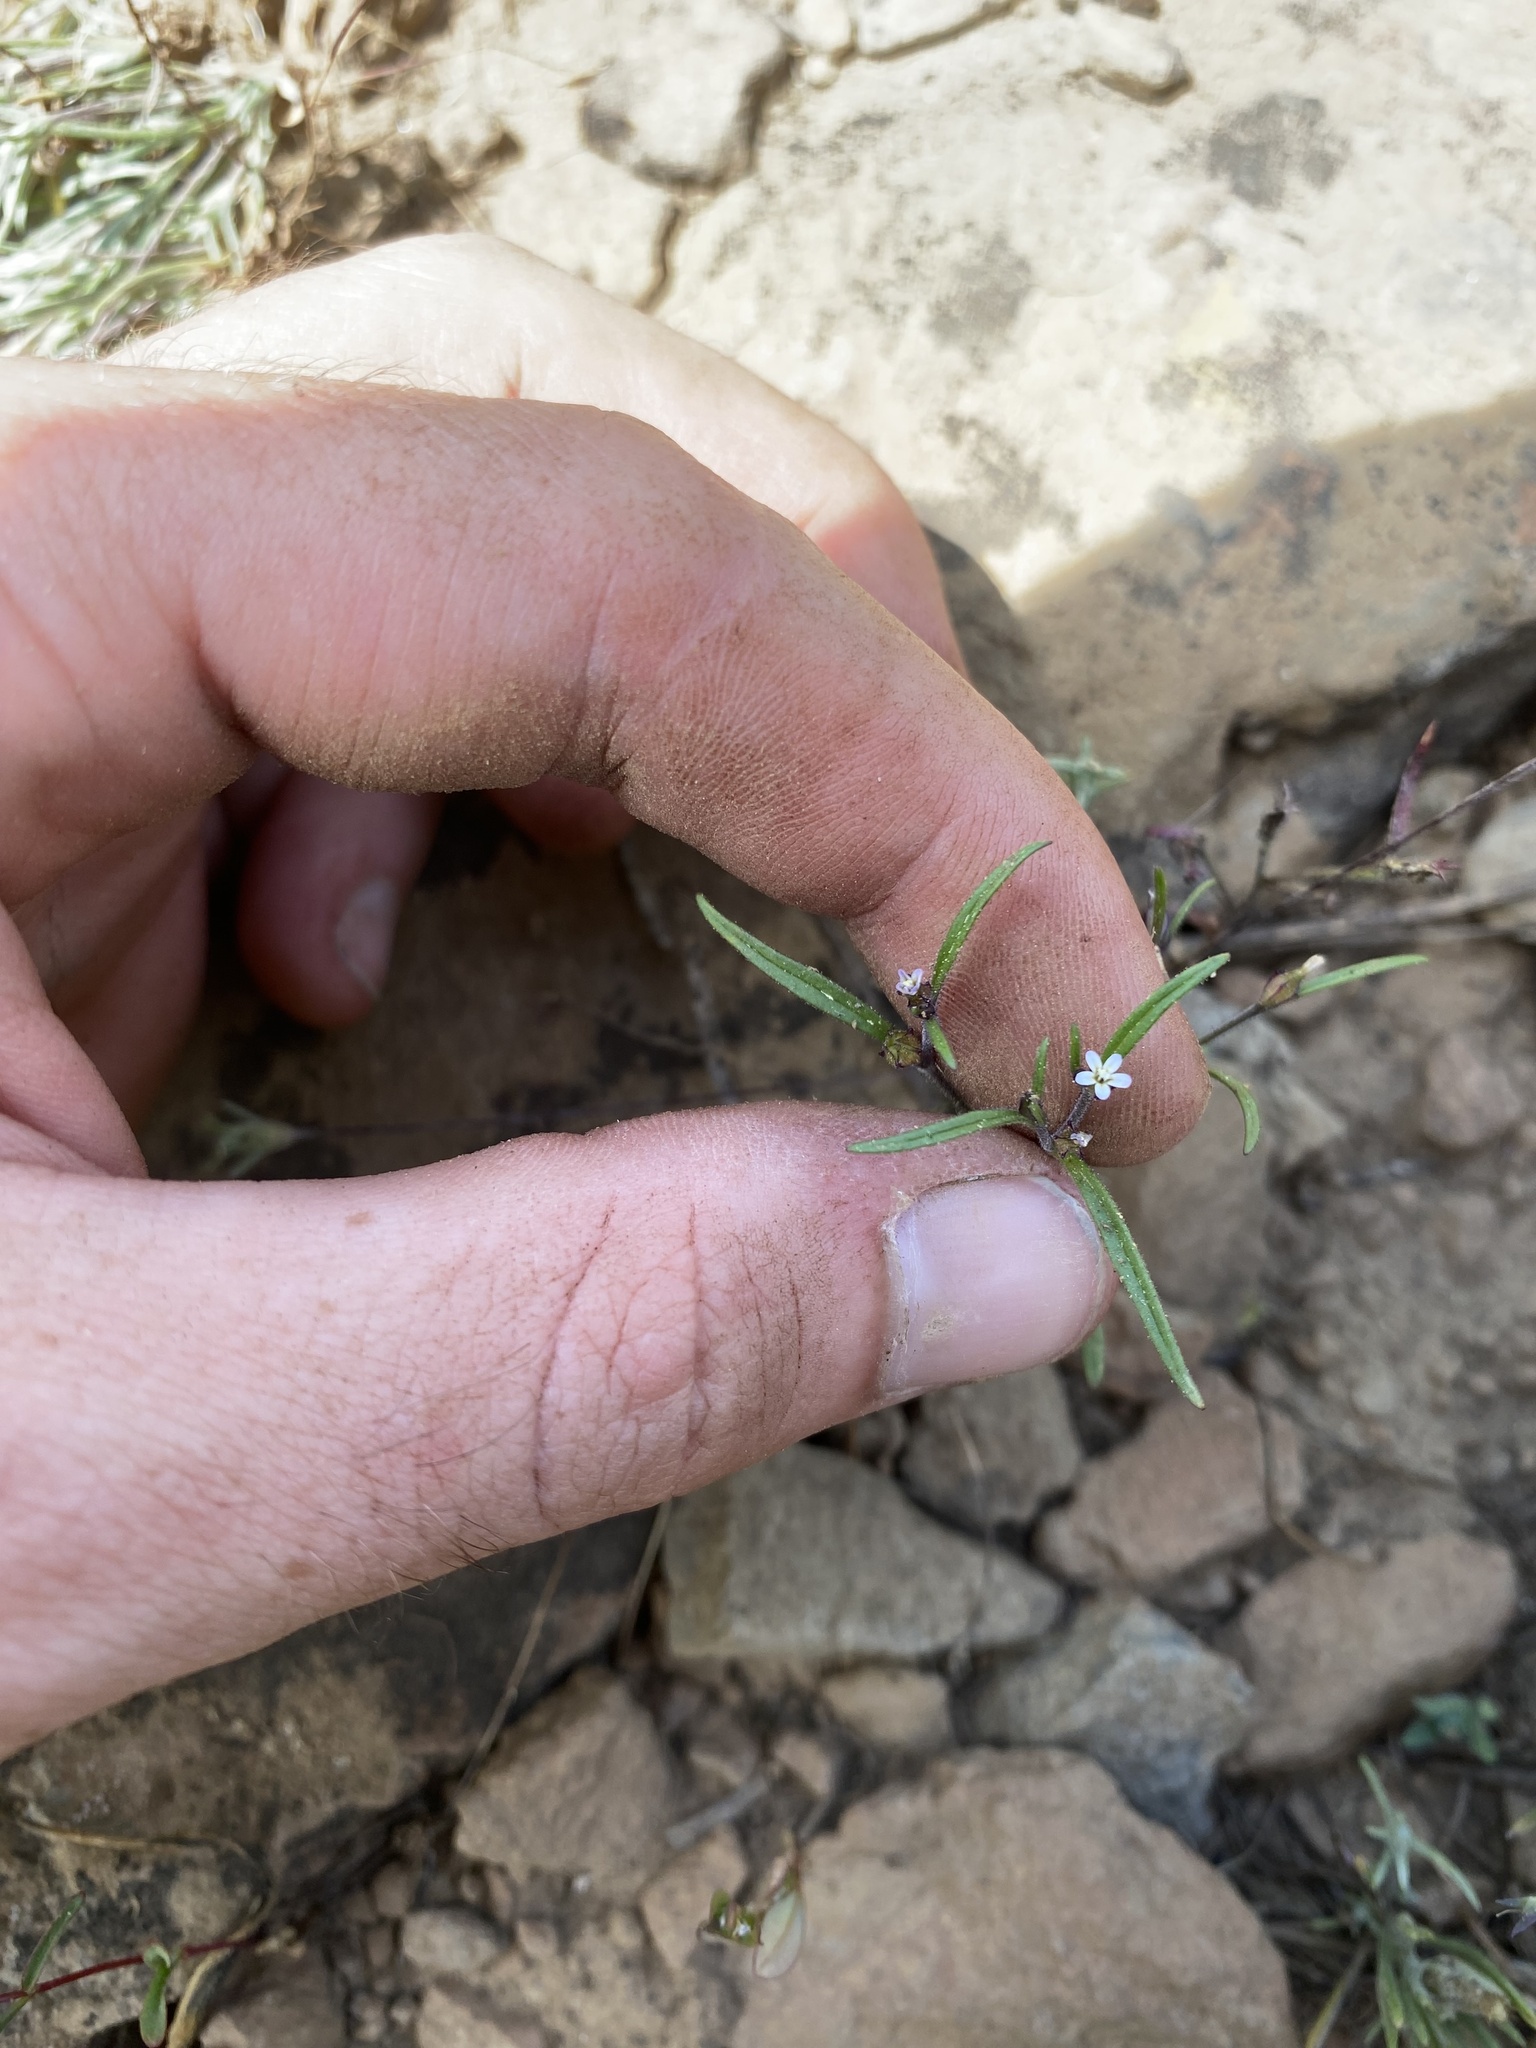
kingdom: Plantae
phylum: Tracheophyta
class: Magnoliopsida
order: Ericales
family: Polemoniaceae
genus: Collomia
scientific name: Collomia tenella
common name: Diffuse collomia
